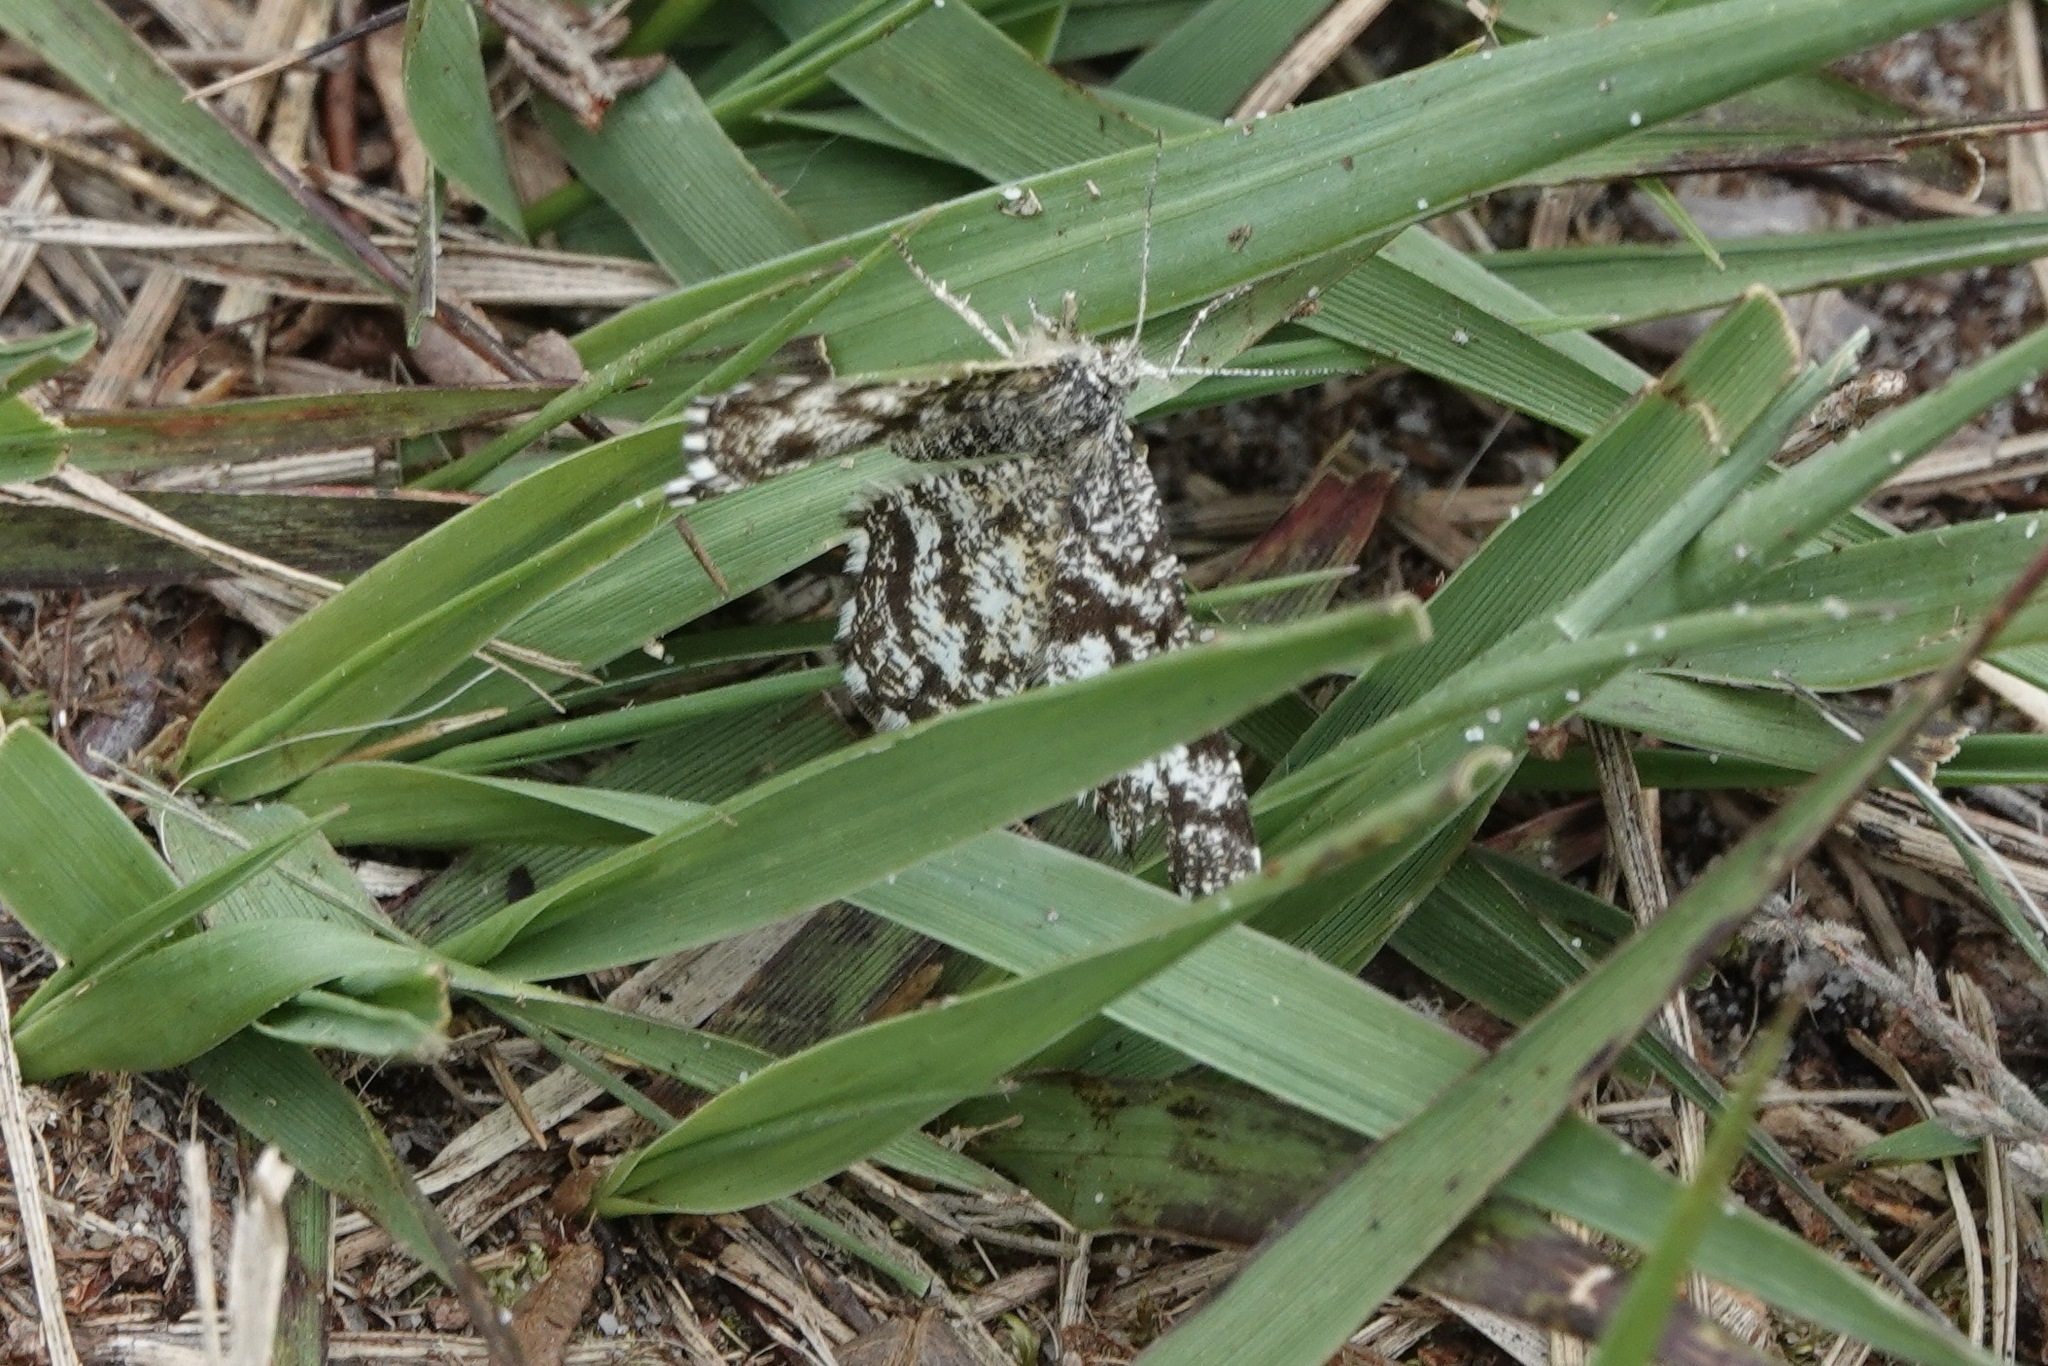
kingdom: Animalia
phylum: Arthropoda
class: Insecta
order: Lepidoptera
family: Geometridae
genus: Ematurga
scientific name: Ematurga atomaria
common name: Common heath
